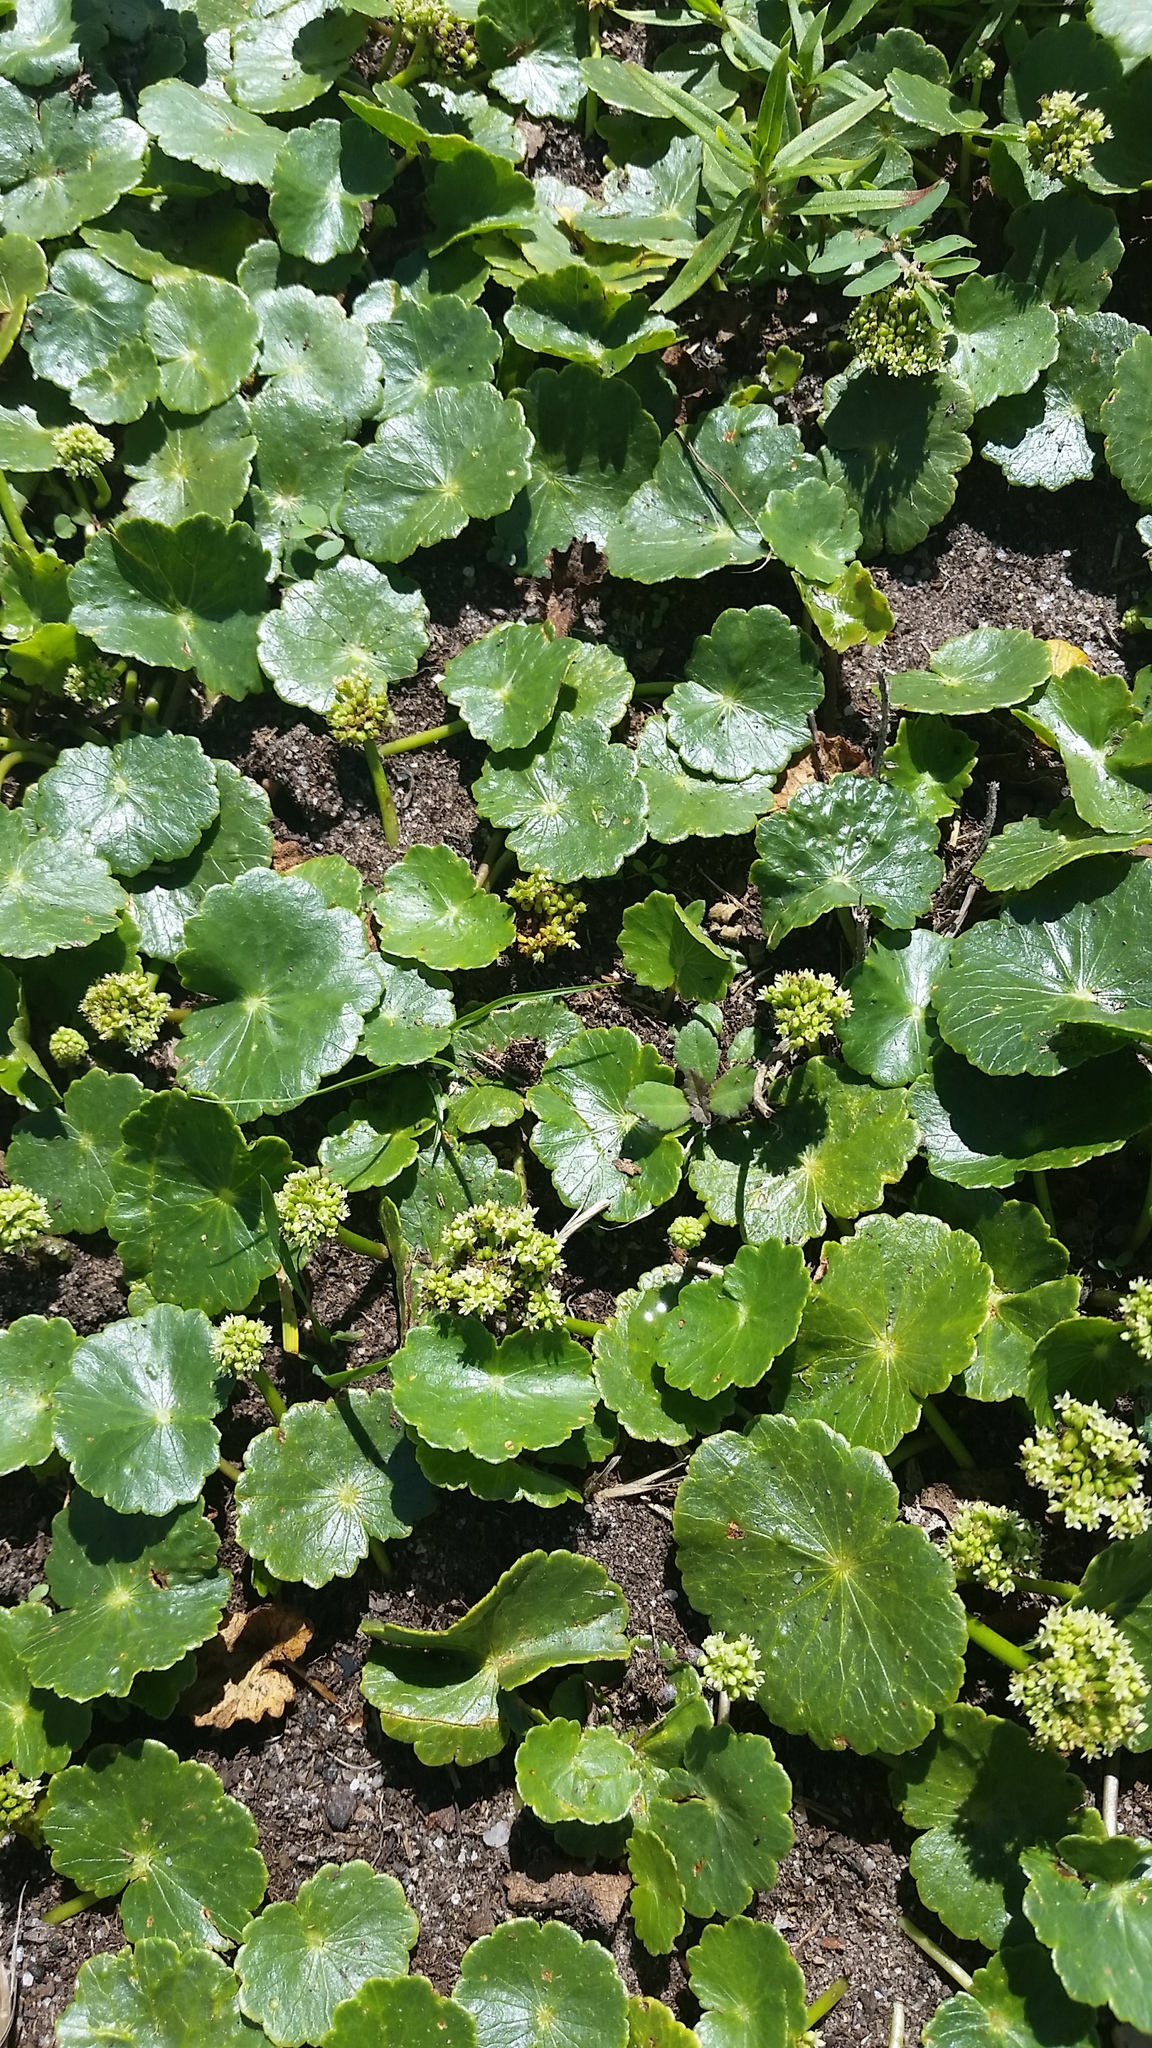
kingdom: Plantae
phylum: Tracheophyta
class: Magnoliopsida
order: Apiales
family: Araliaceae
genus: Hydrocotyle
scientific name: Hydrocotyle bonariensis
